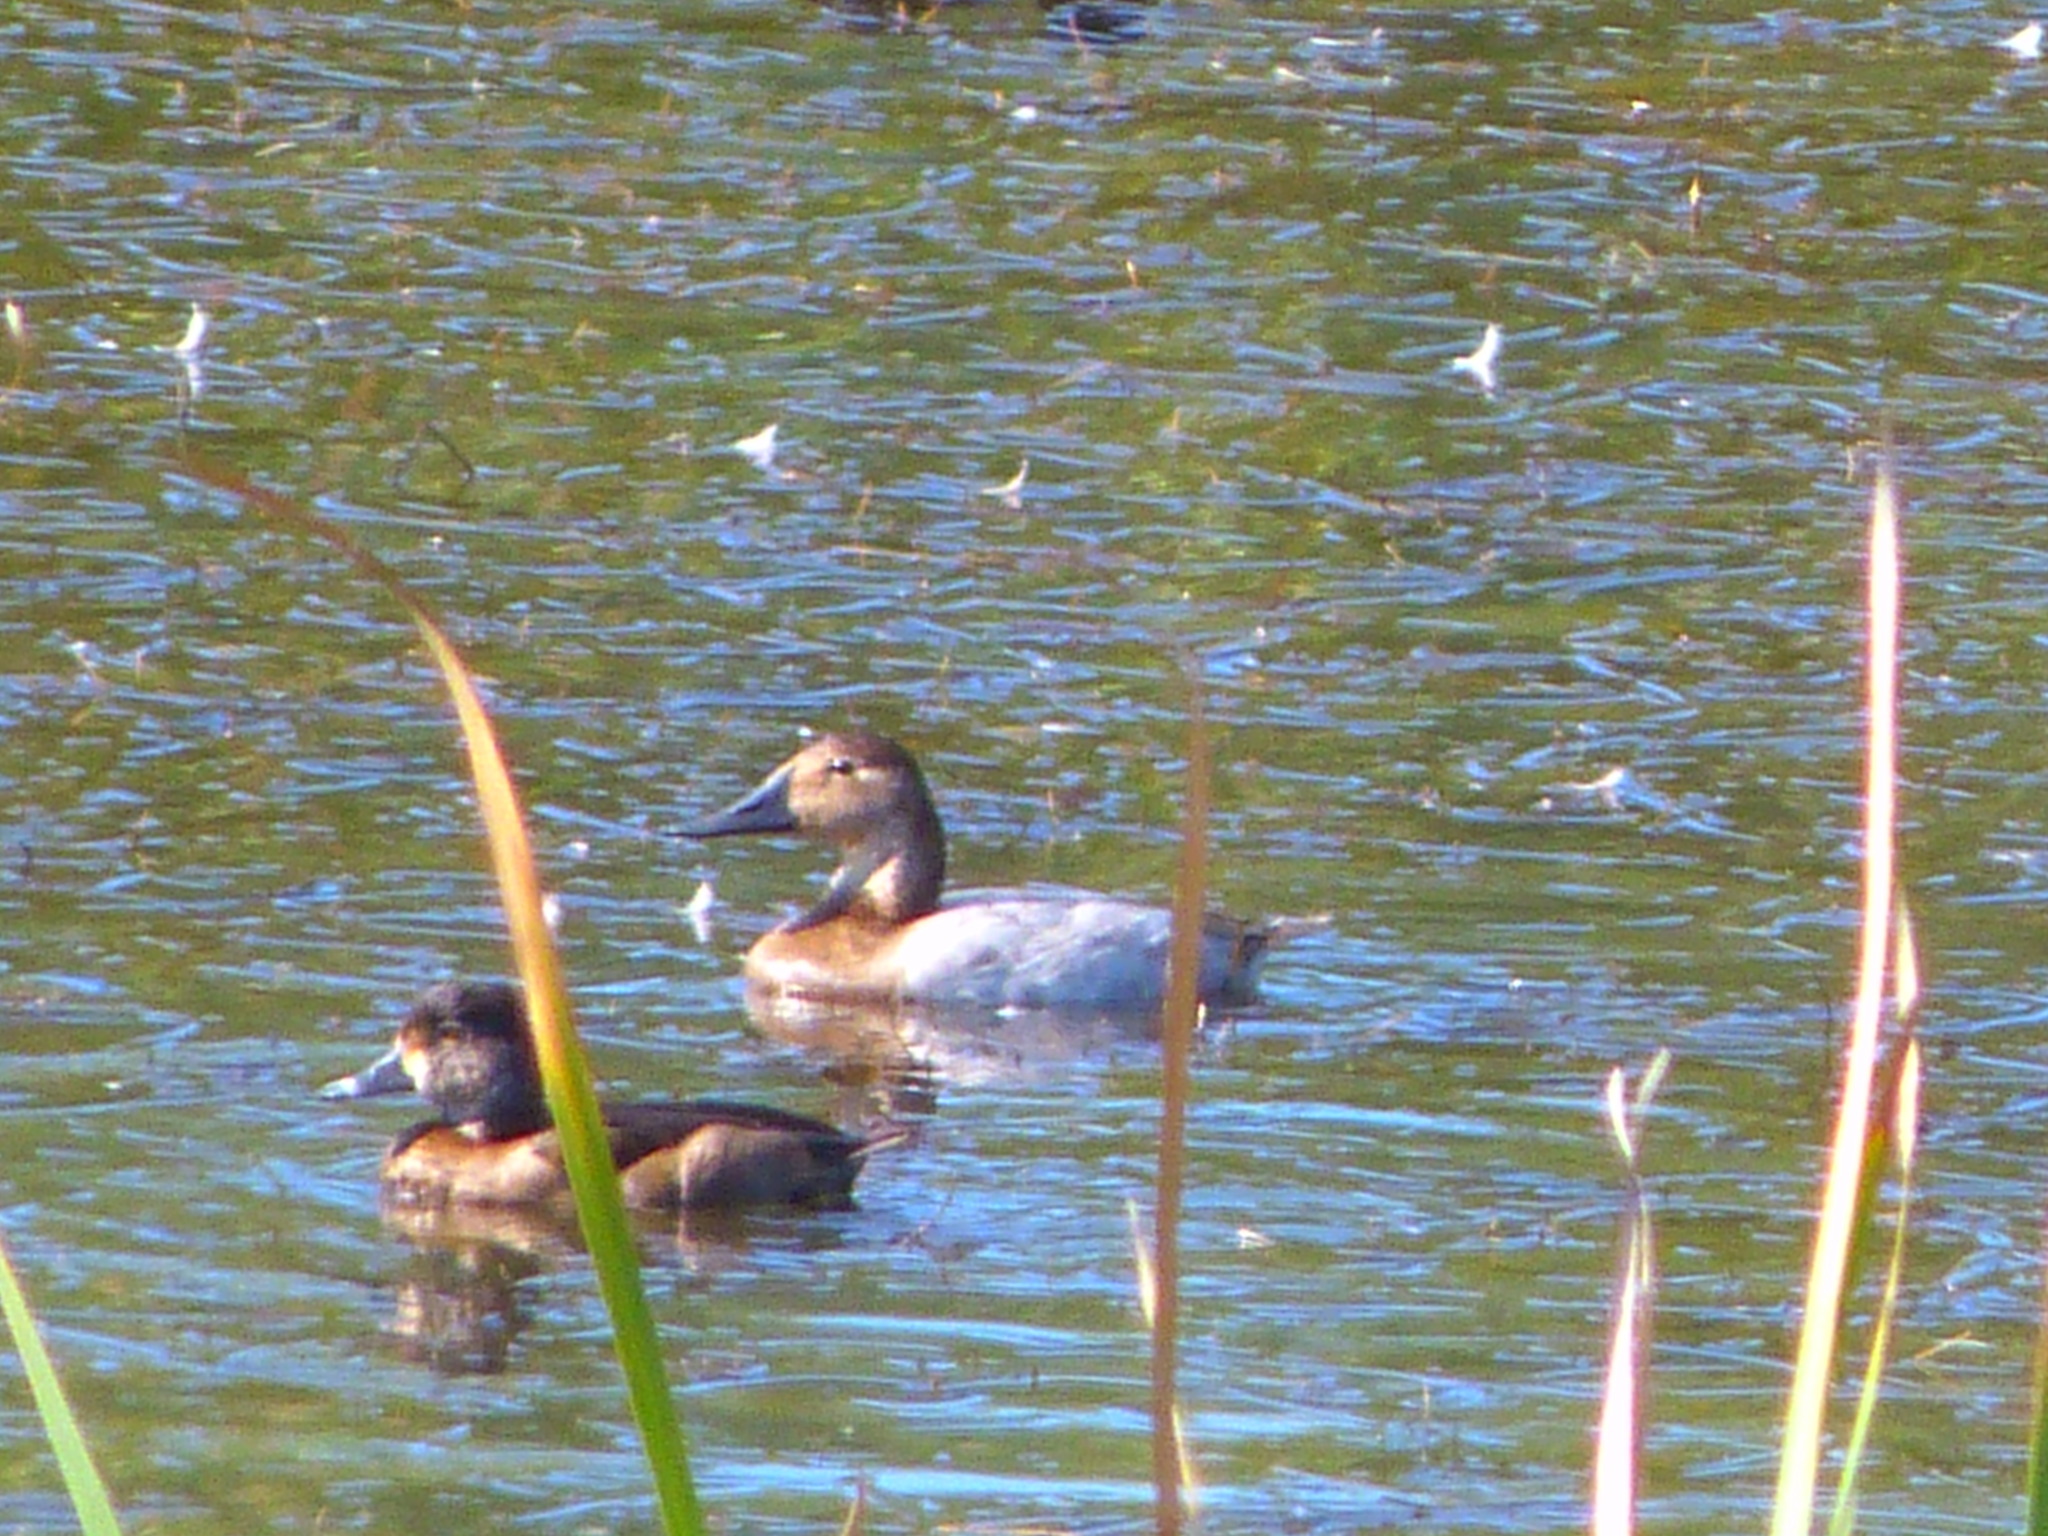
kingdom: Animalia
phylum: Chordata
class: Aves
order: Anseriformes
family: Anatidae
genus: Aythya
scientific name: Aythya valisineria
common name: Canvasback
